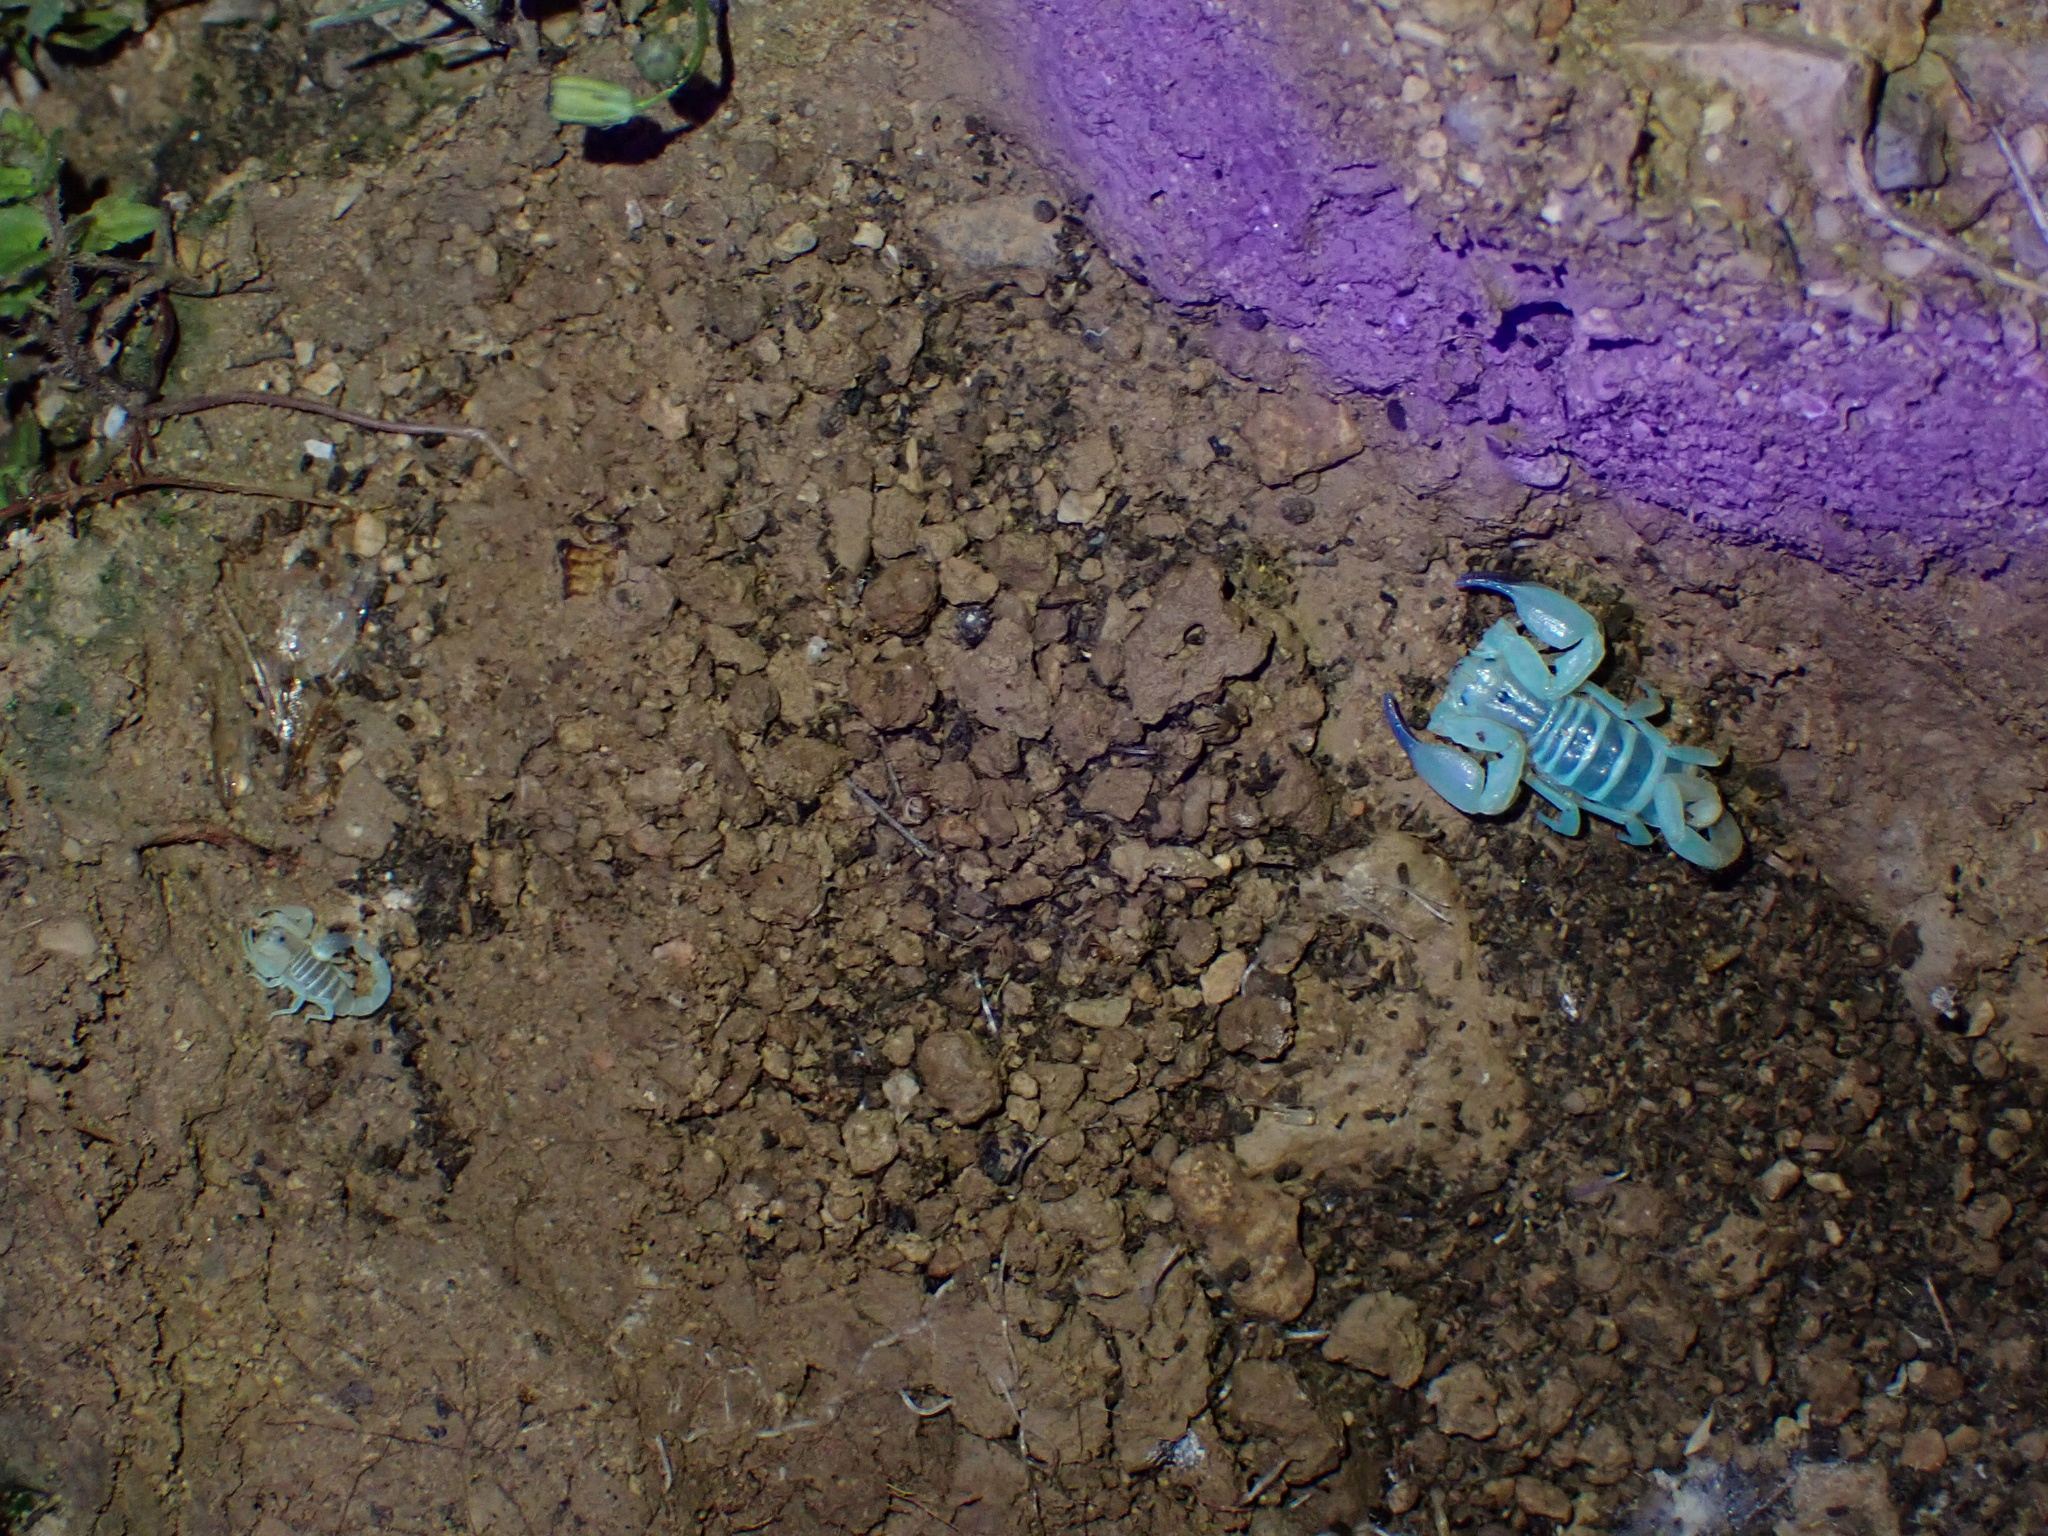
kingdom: Animalia
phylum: Arthropoda
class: Arachnida
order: Scorpiones
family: Buthidae
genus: Razianus
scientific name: Razianus zarudnyi
